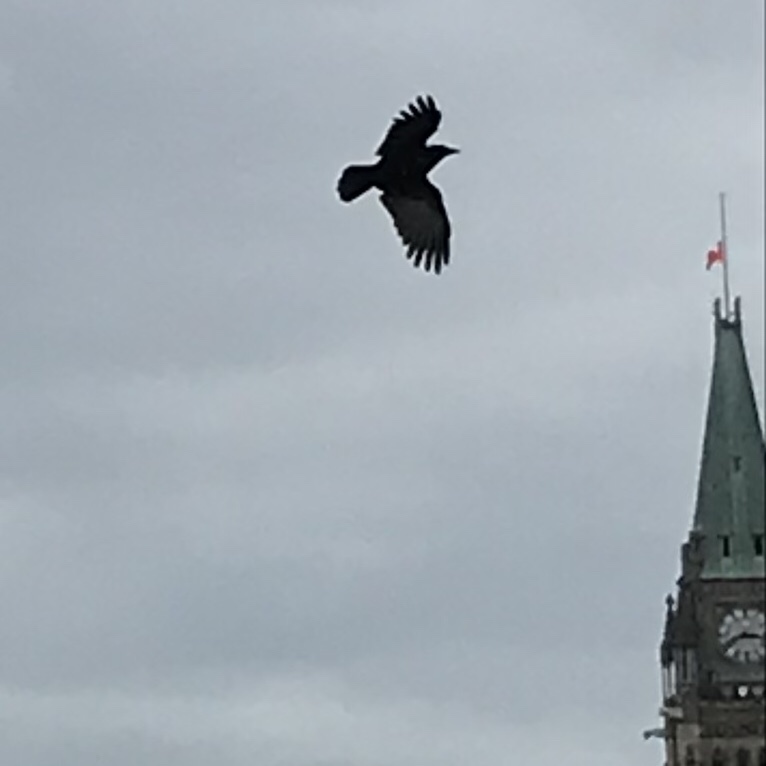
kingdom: Animalia
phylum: Chordata
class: Aves
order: Passeriformes
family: Corvidae
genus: Corvus
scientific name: Corvus brachyrhynchos
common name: American crow
